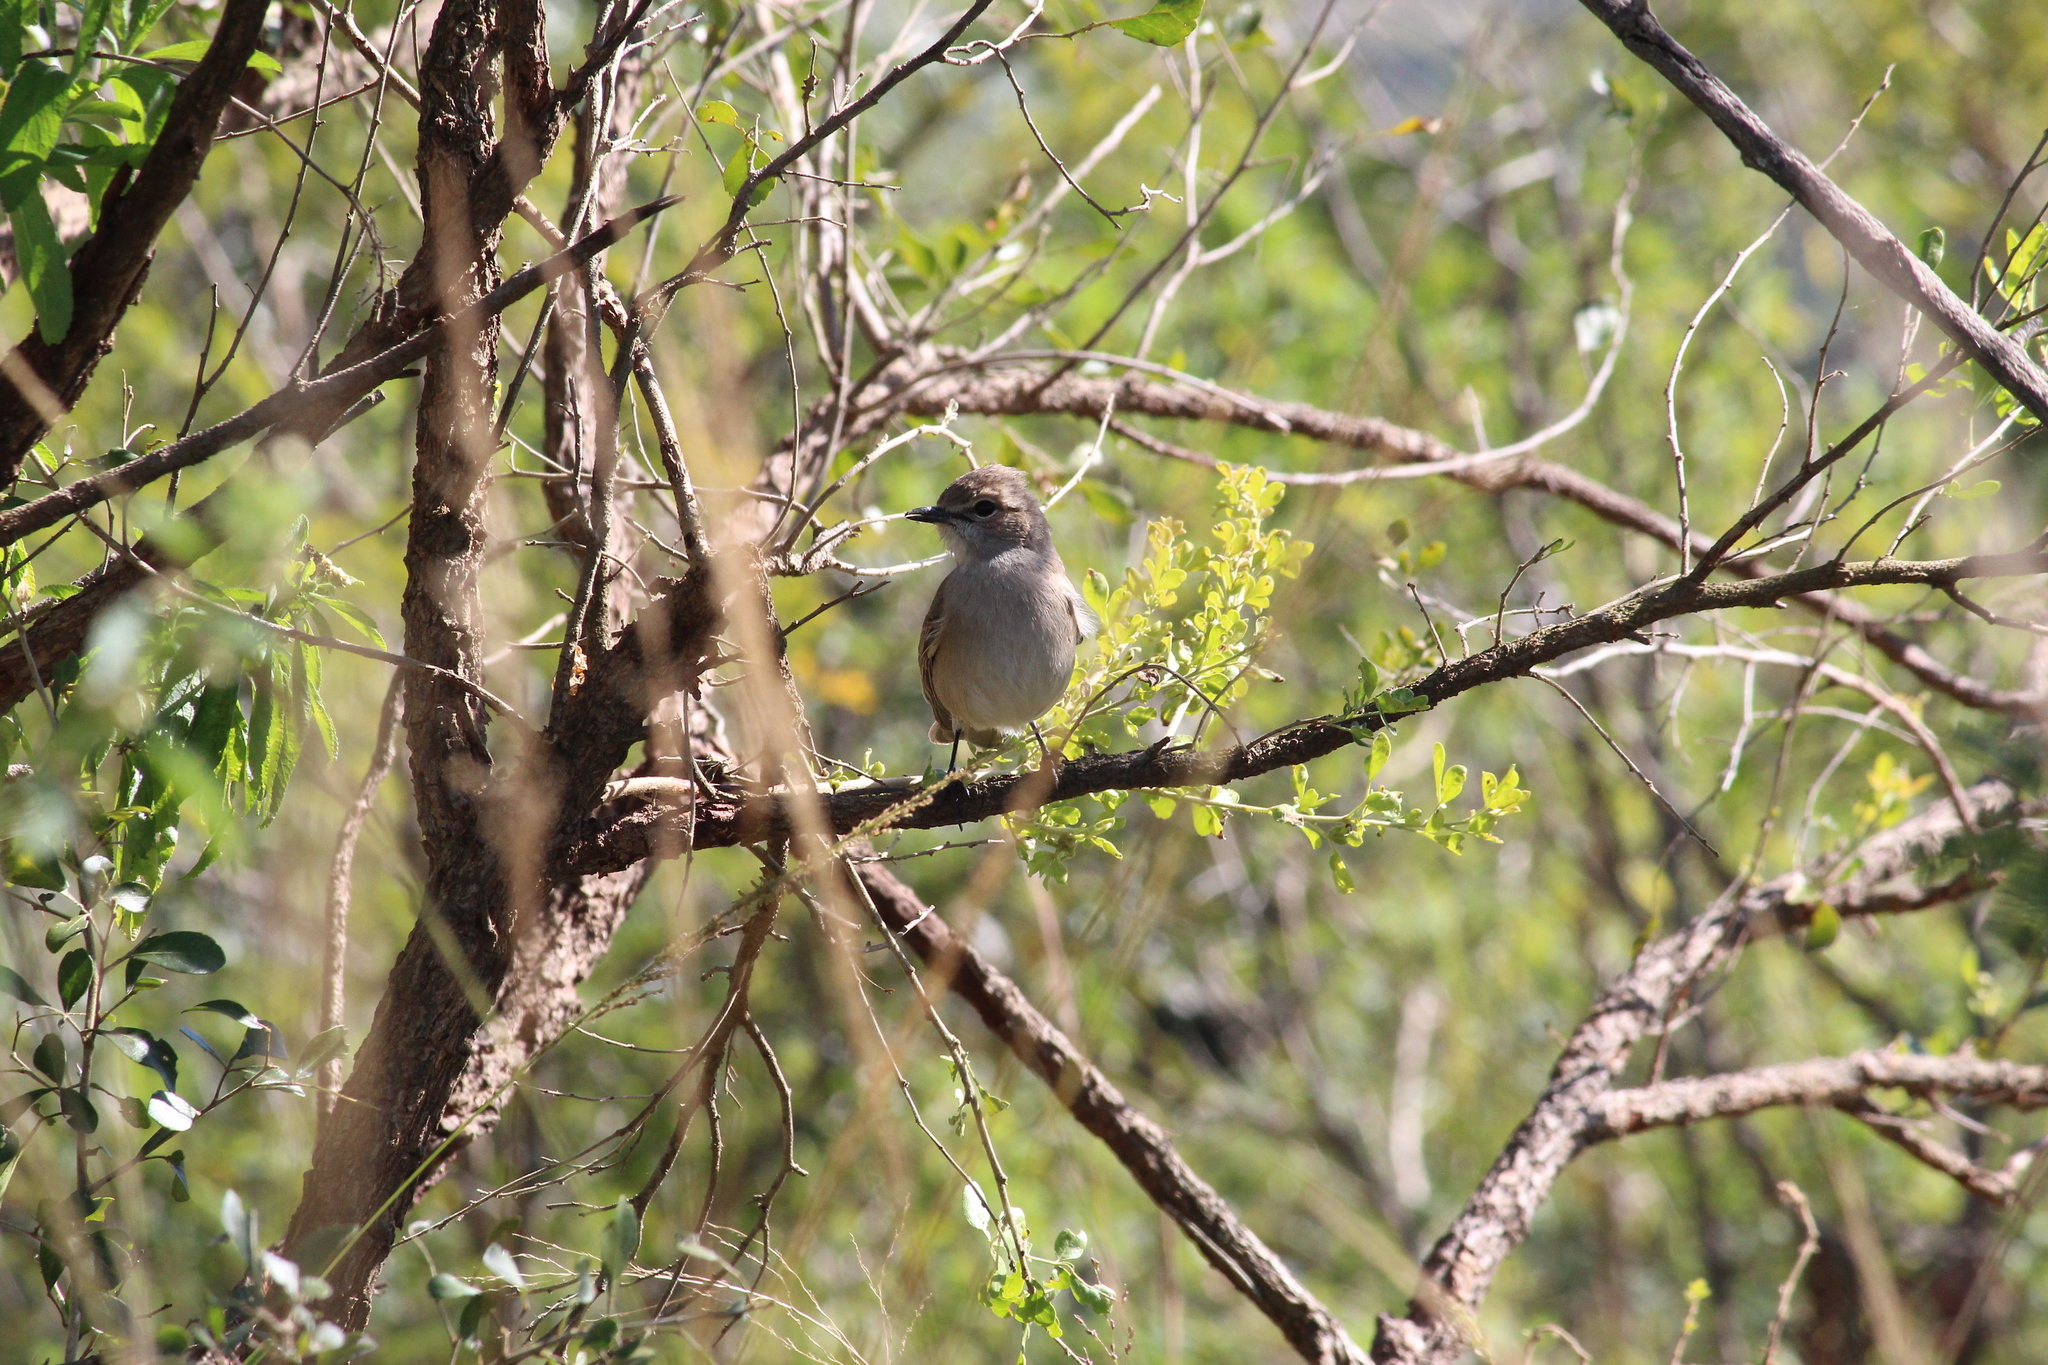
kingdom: Animalia
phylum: Chordata
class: Aves
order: Passeriformes
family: Muscicapidae
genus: Bradornis
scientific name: Bradornis pallidus
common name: Pale flycatcher
